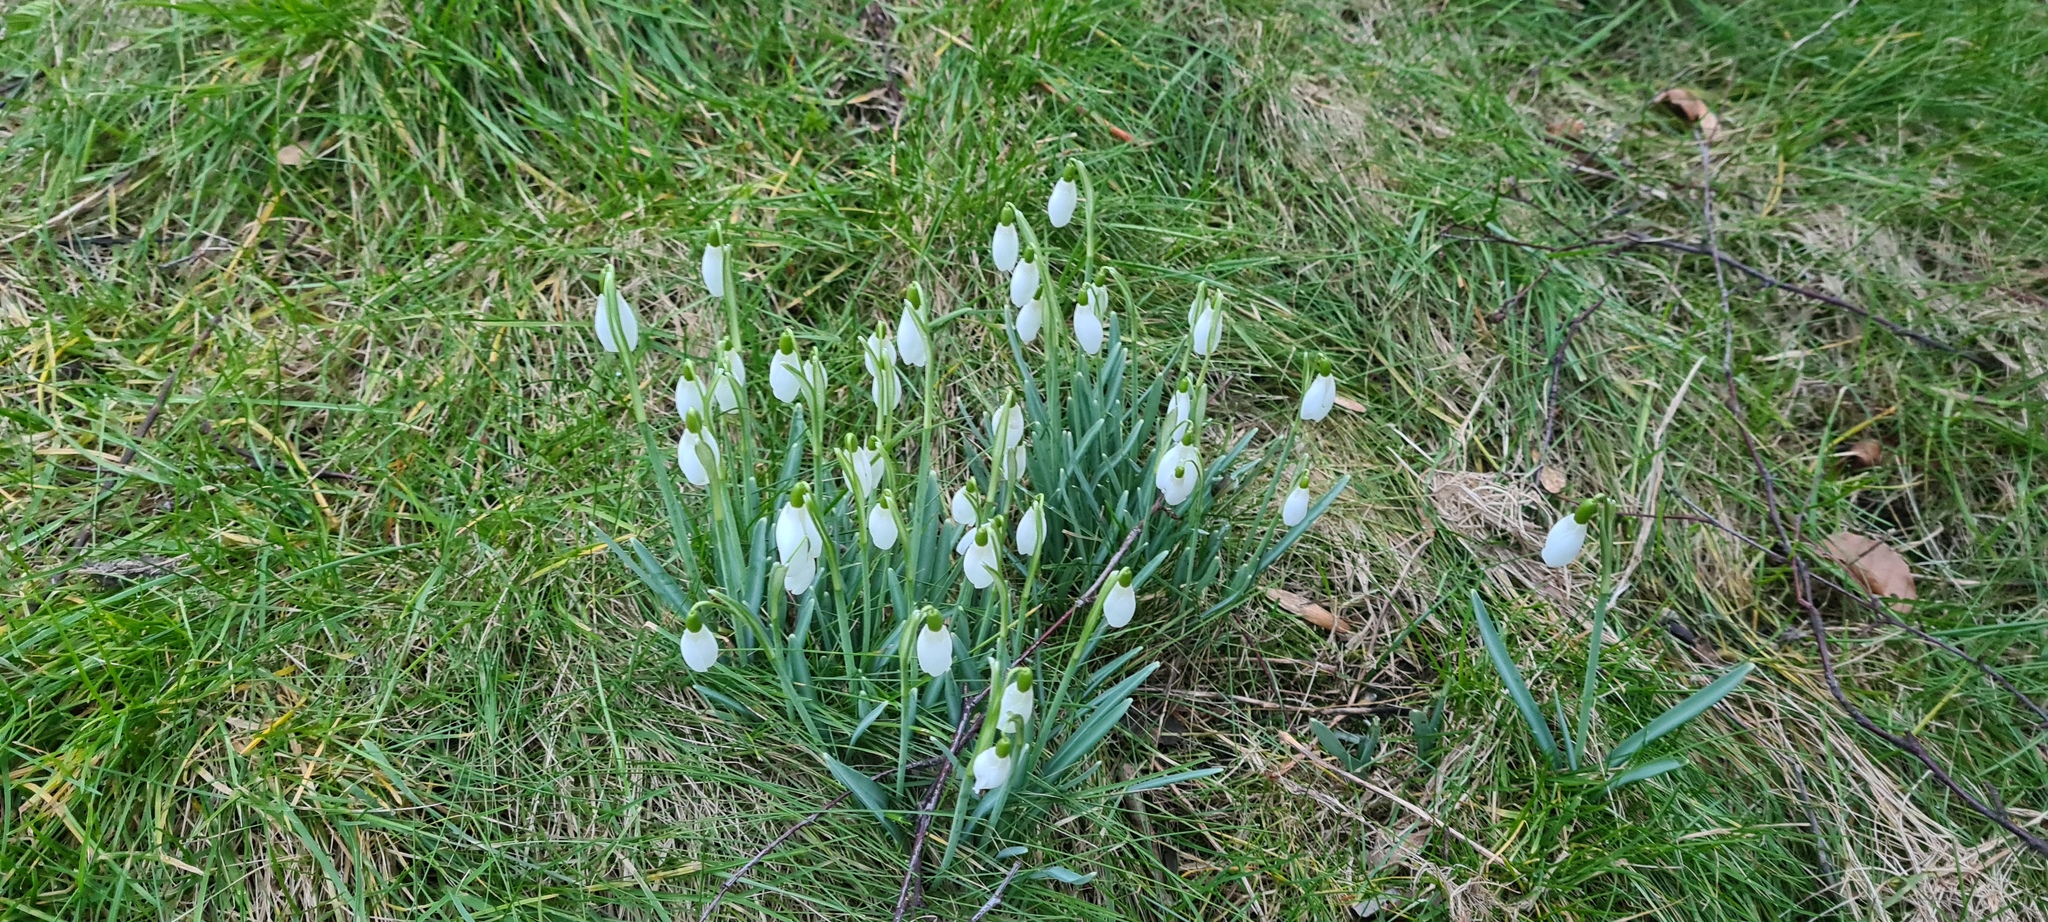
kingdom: Plantae
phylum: Tracheophyta
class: Liliopsida
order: Asparagales
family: Amaryllidaceae
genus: Galanthus
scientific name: Galanthus nivalis
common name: Snowdrop
